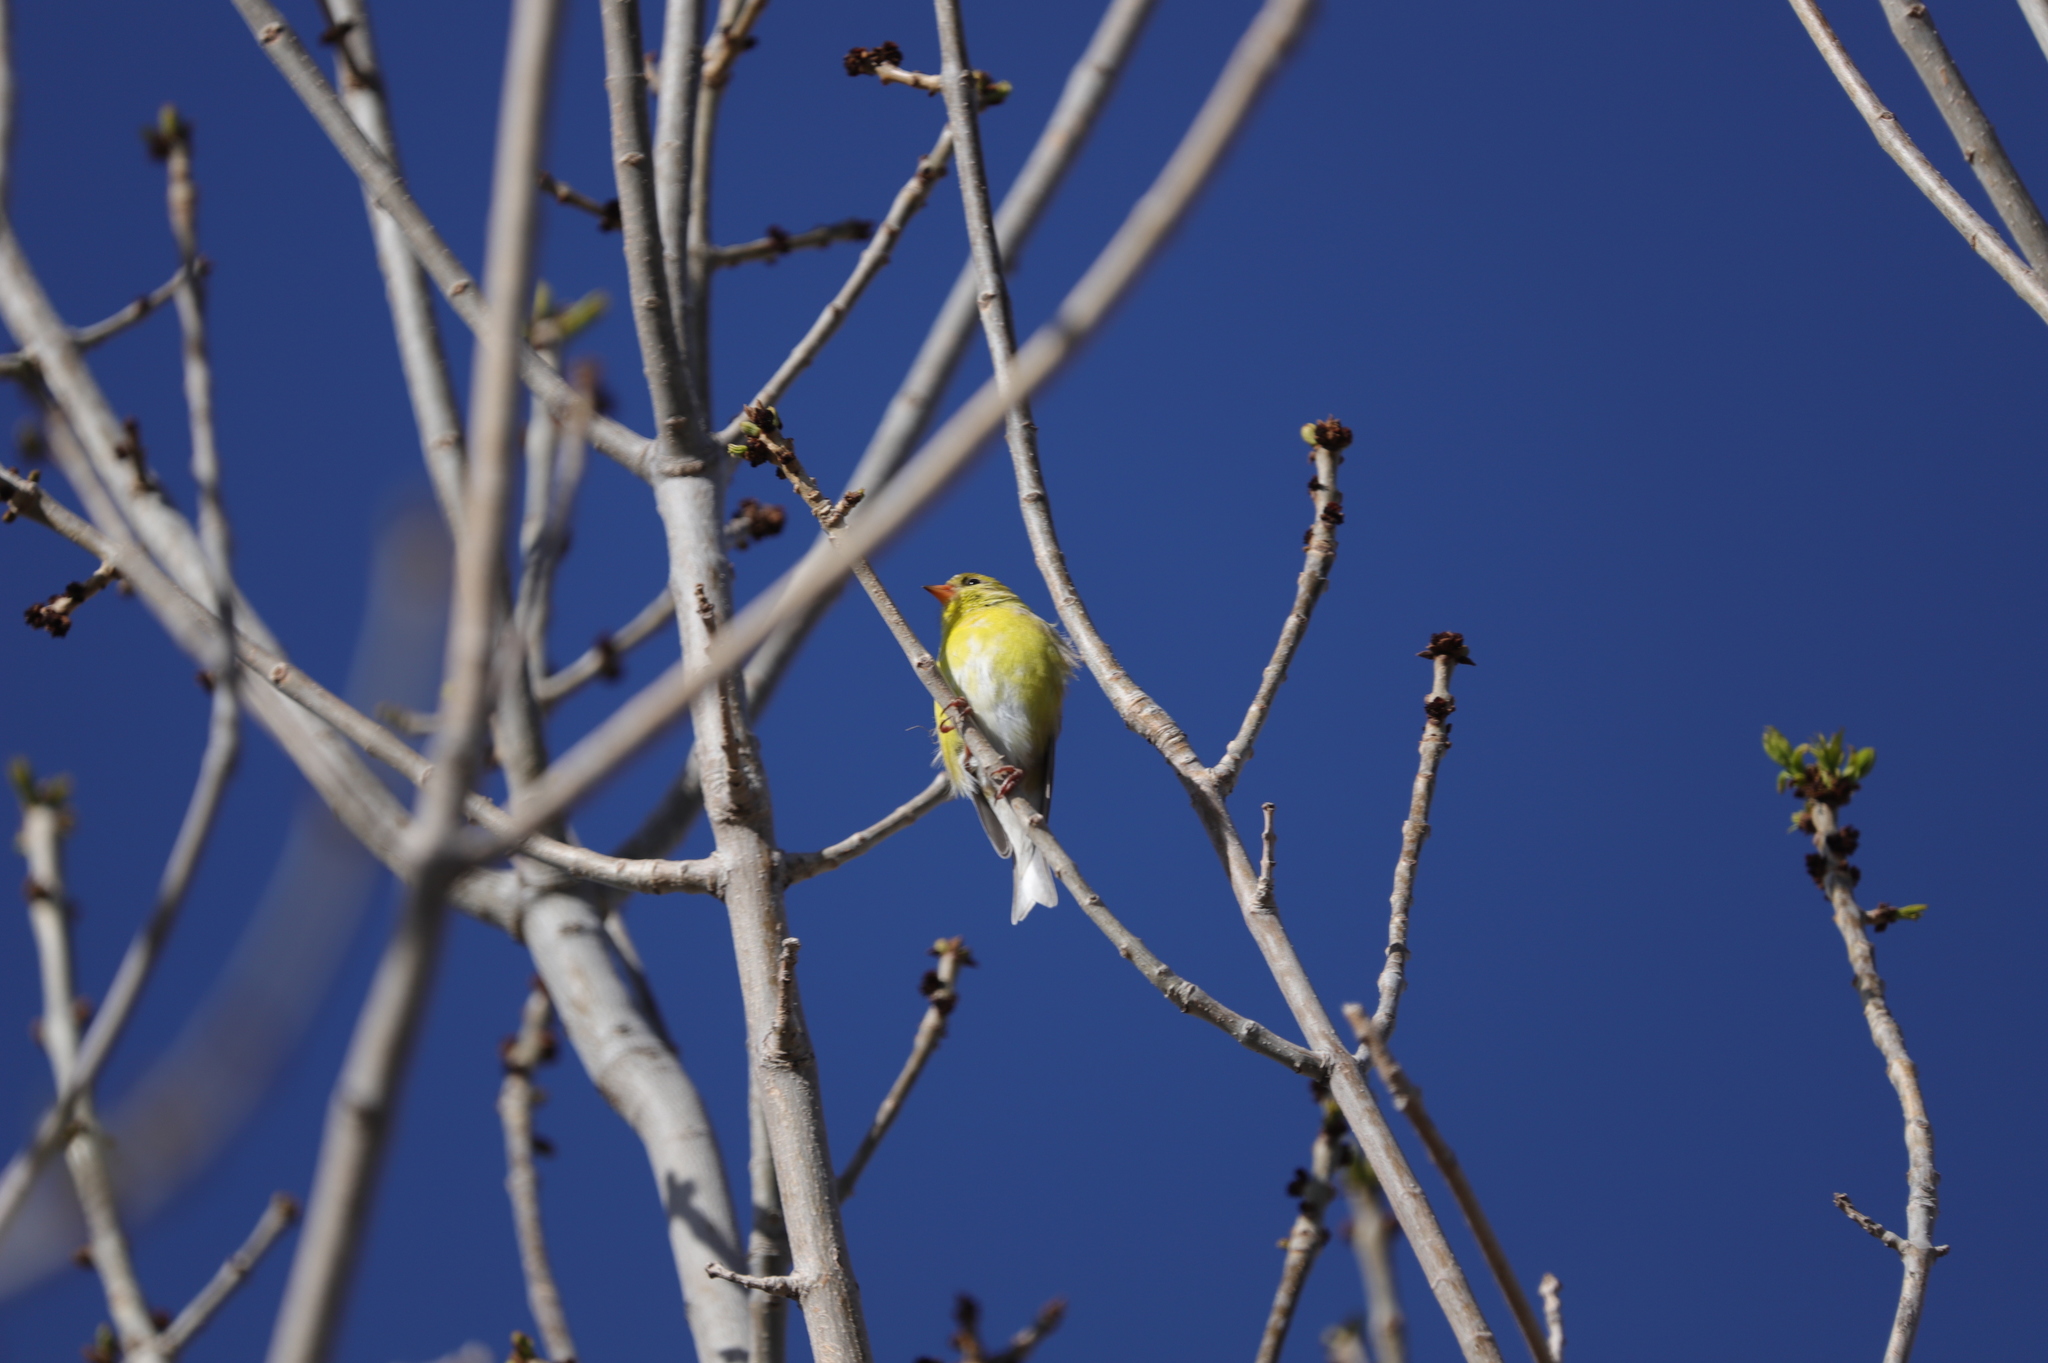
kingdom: Animalia
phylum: Chordata
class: Aves
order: Passeriformes
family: Fringillidae
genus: Spinus
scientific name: Spinus tristis
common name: American goldfinch
